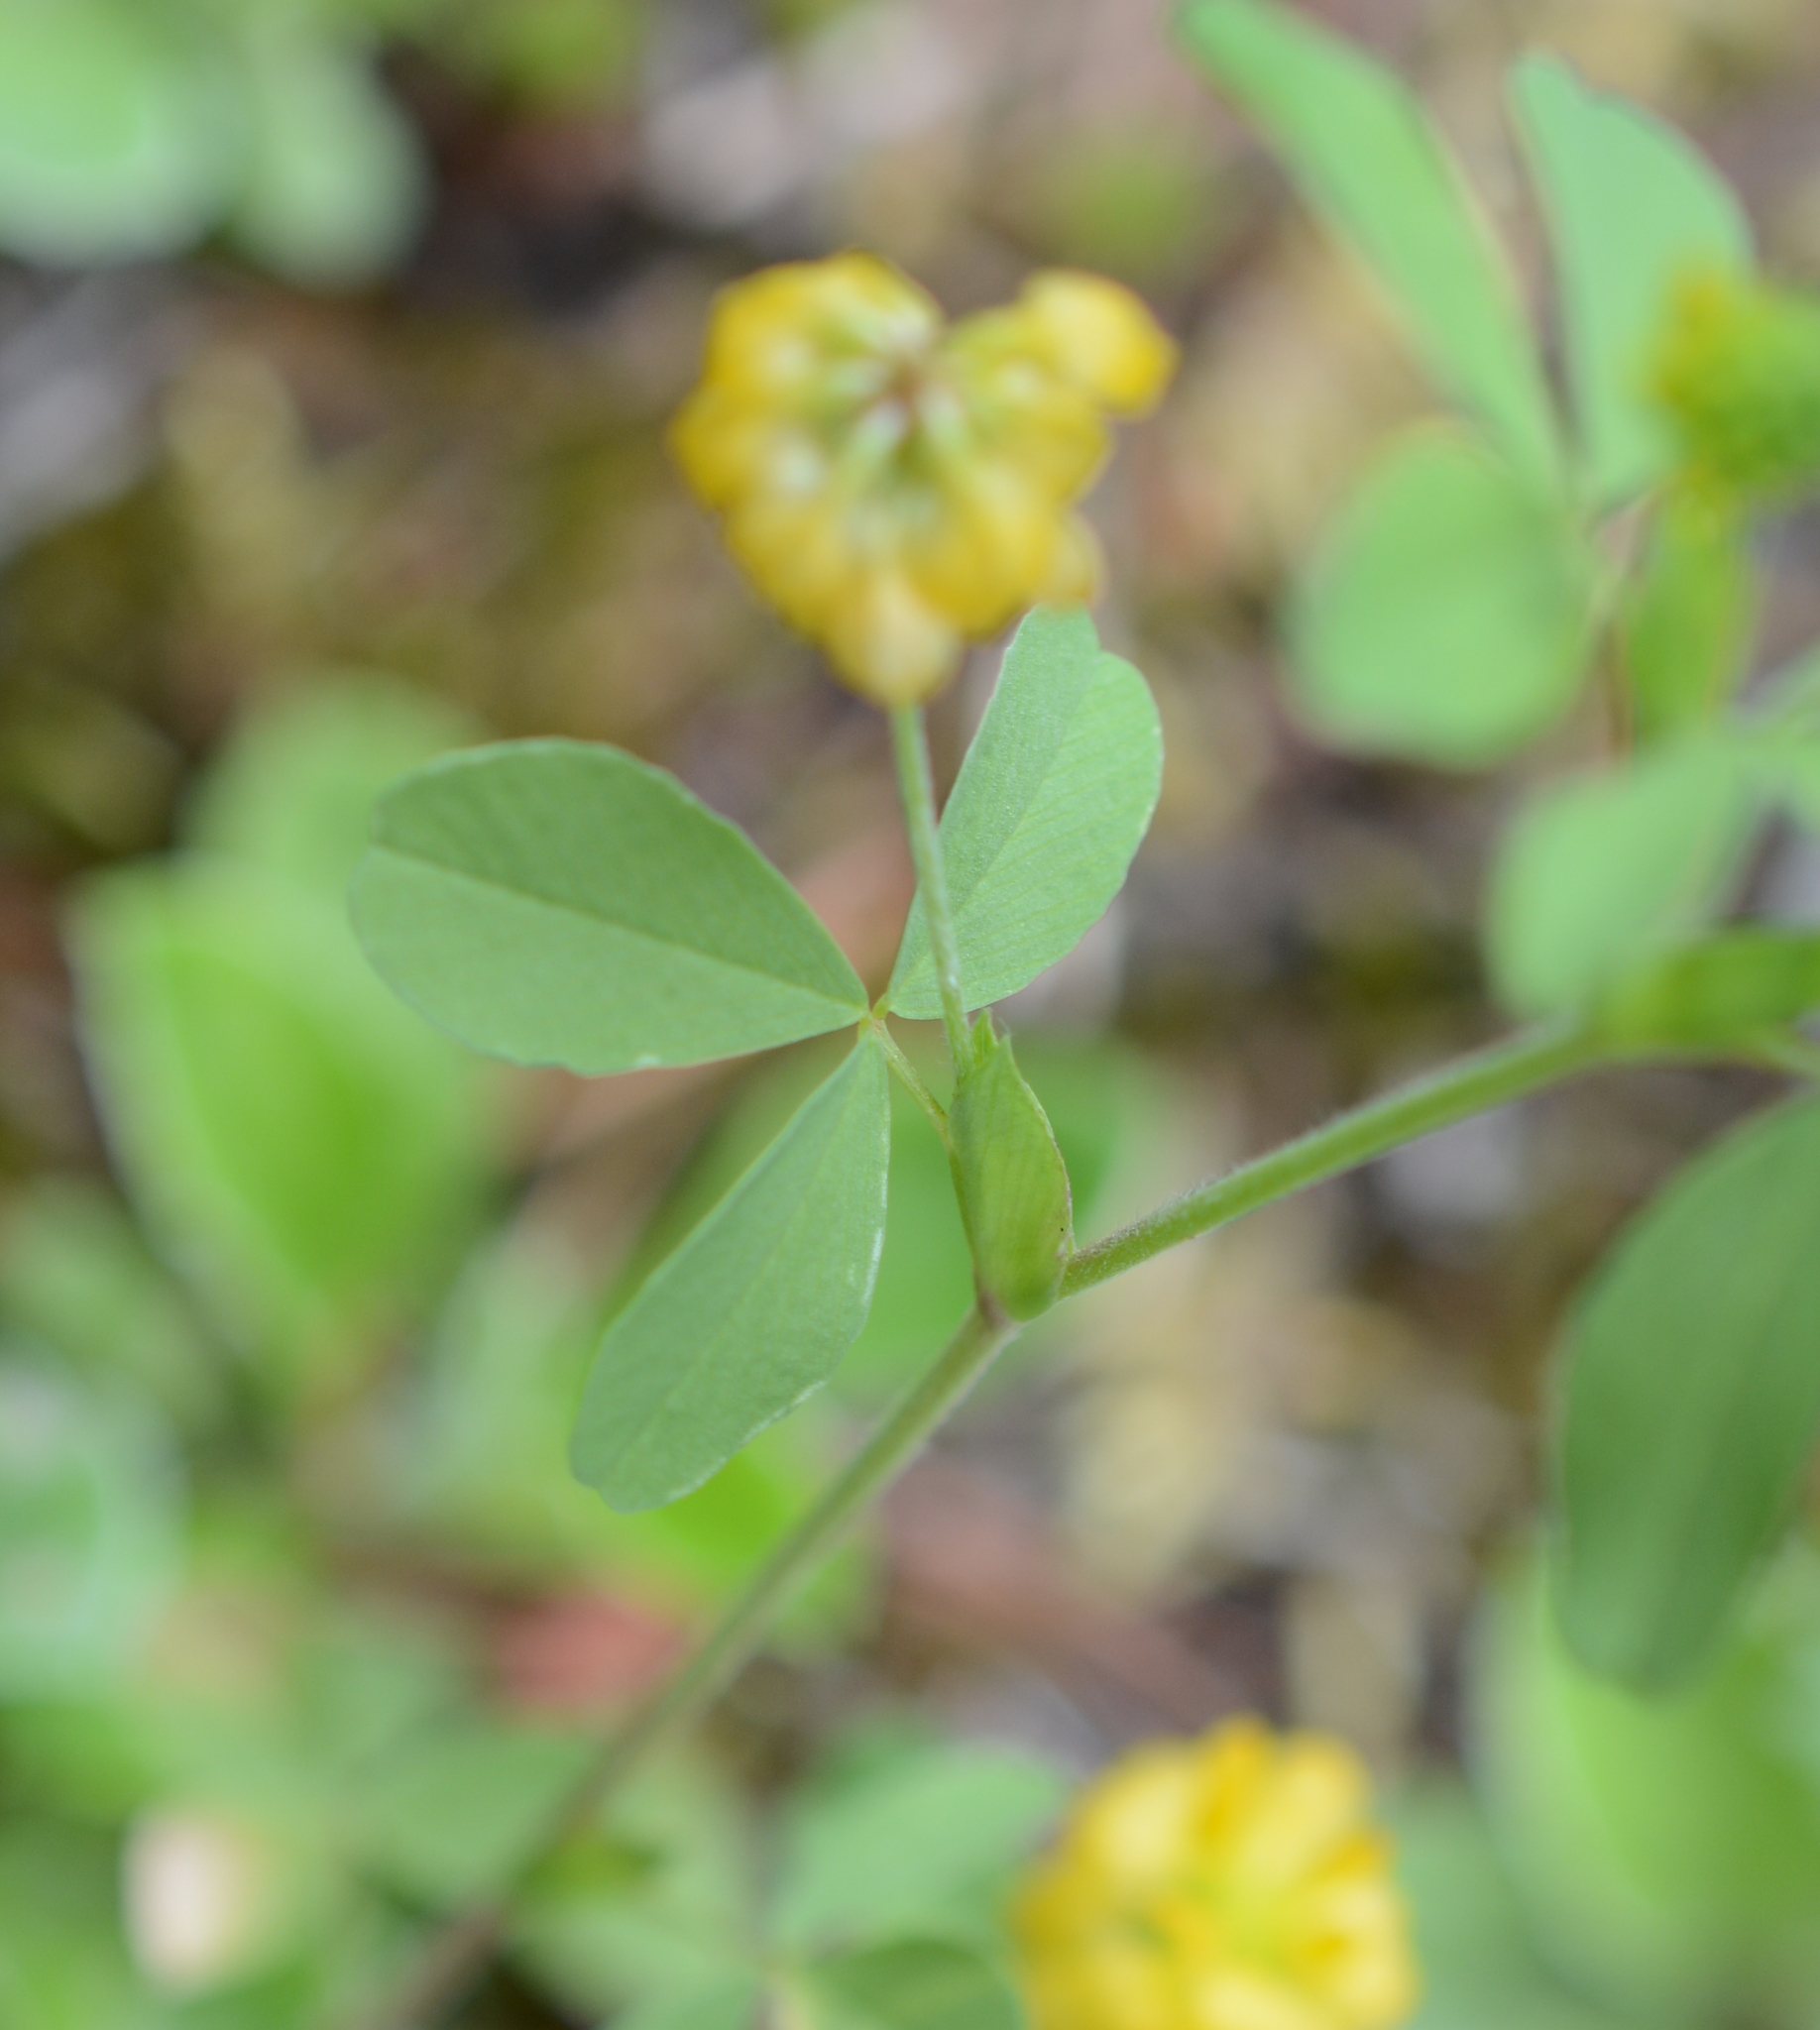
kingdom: Plantae
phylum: Tracheophyta
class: Magnoliopsida
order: Fabales
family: Fabaceae
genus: Trifolium
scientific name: Trifolium aureum
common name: Golden clover
